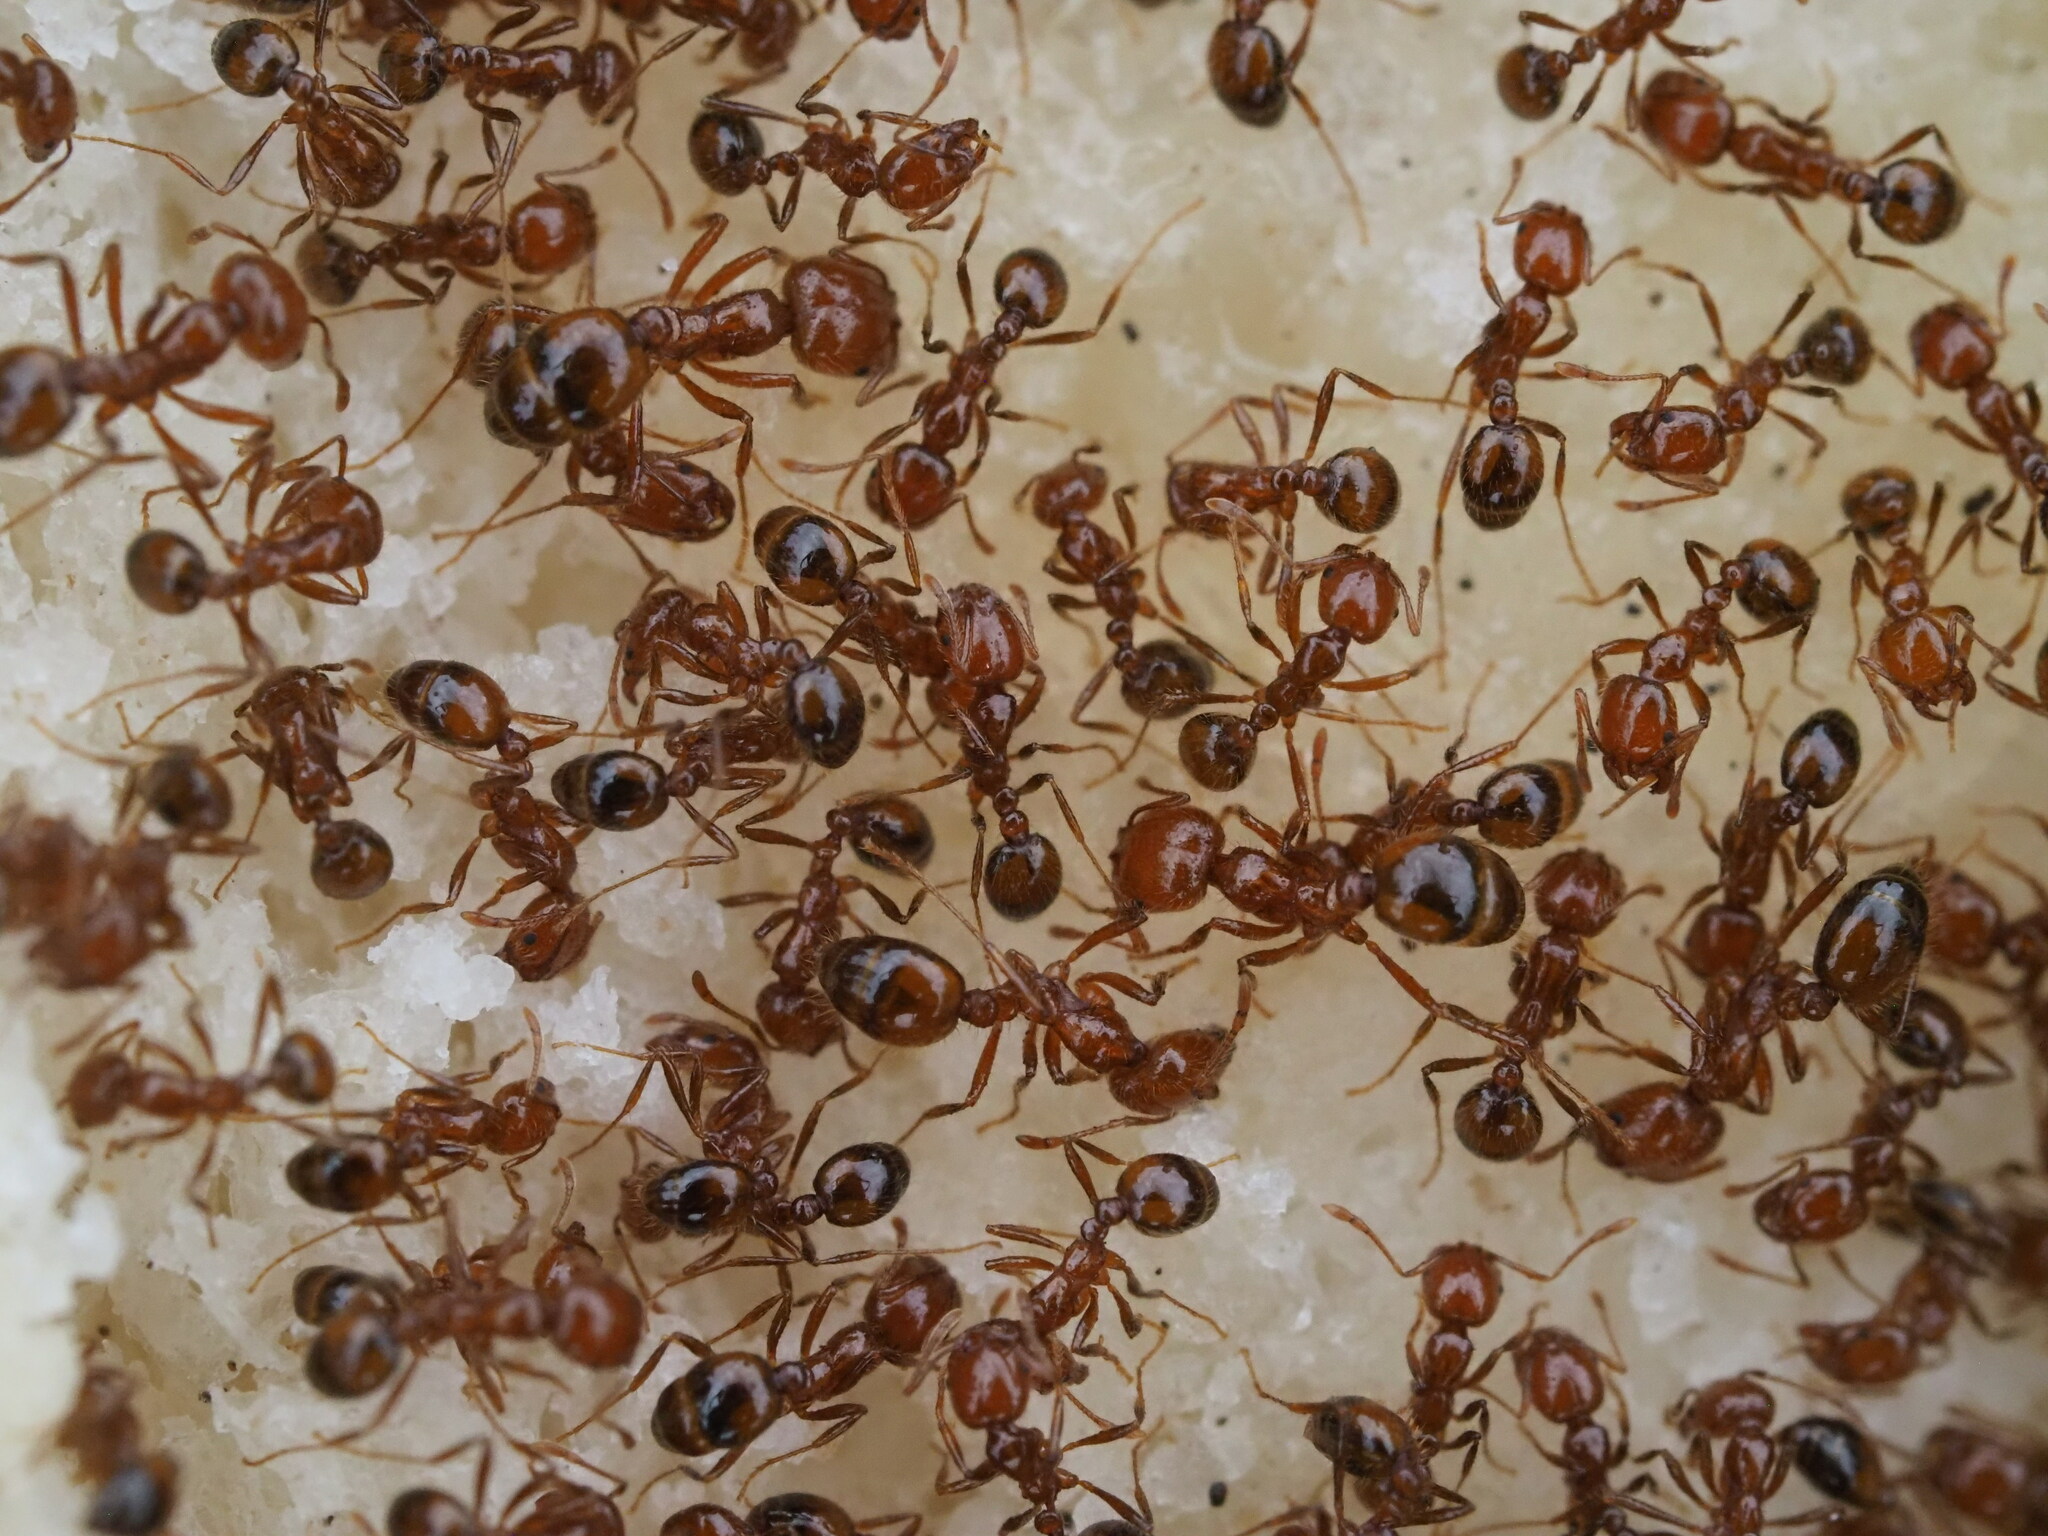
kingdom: Animalia
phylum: Arthropoda
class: Insecta
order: Hymenoptera
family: Formicidae
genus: Solenopsis
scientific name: Solenopsis geminata
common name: Tropical fire ant
